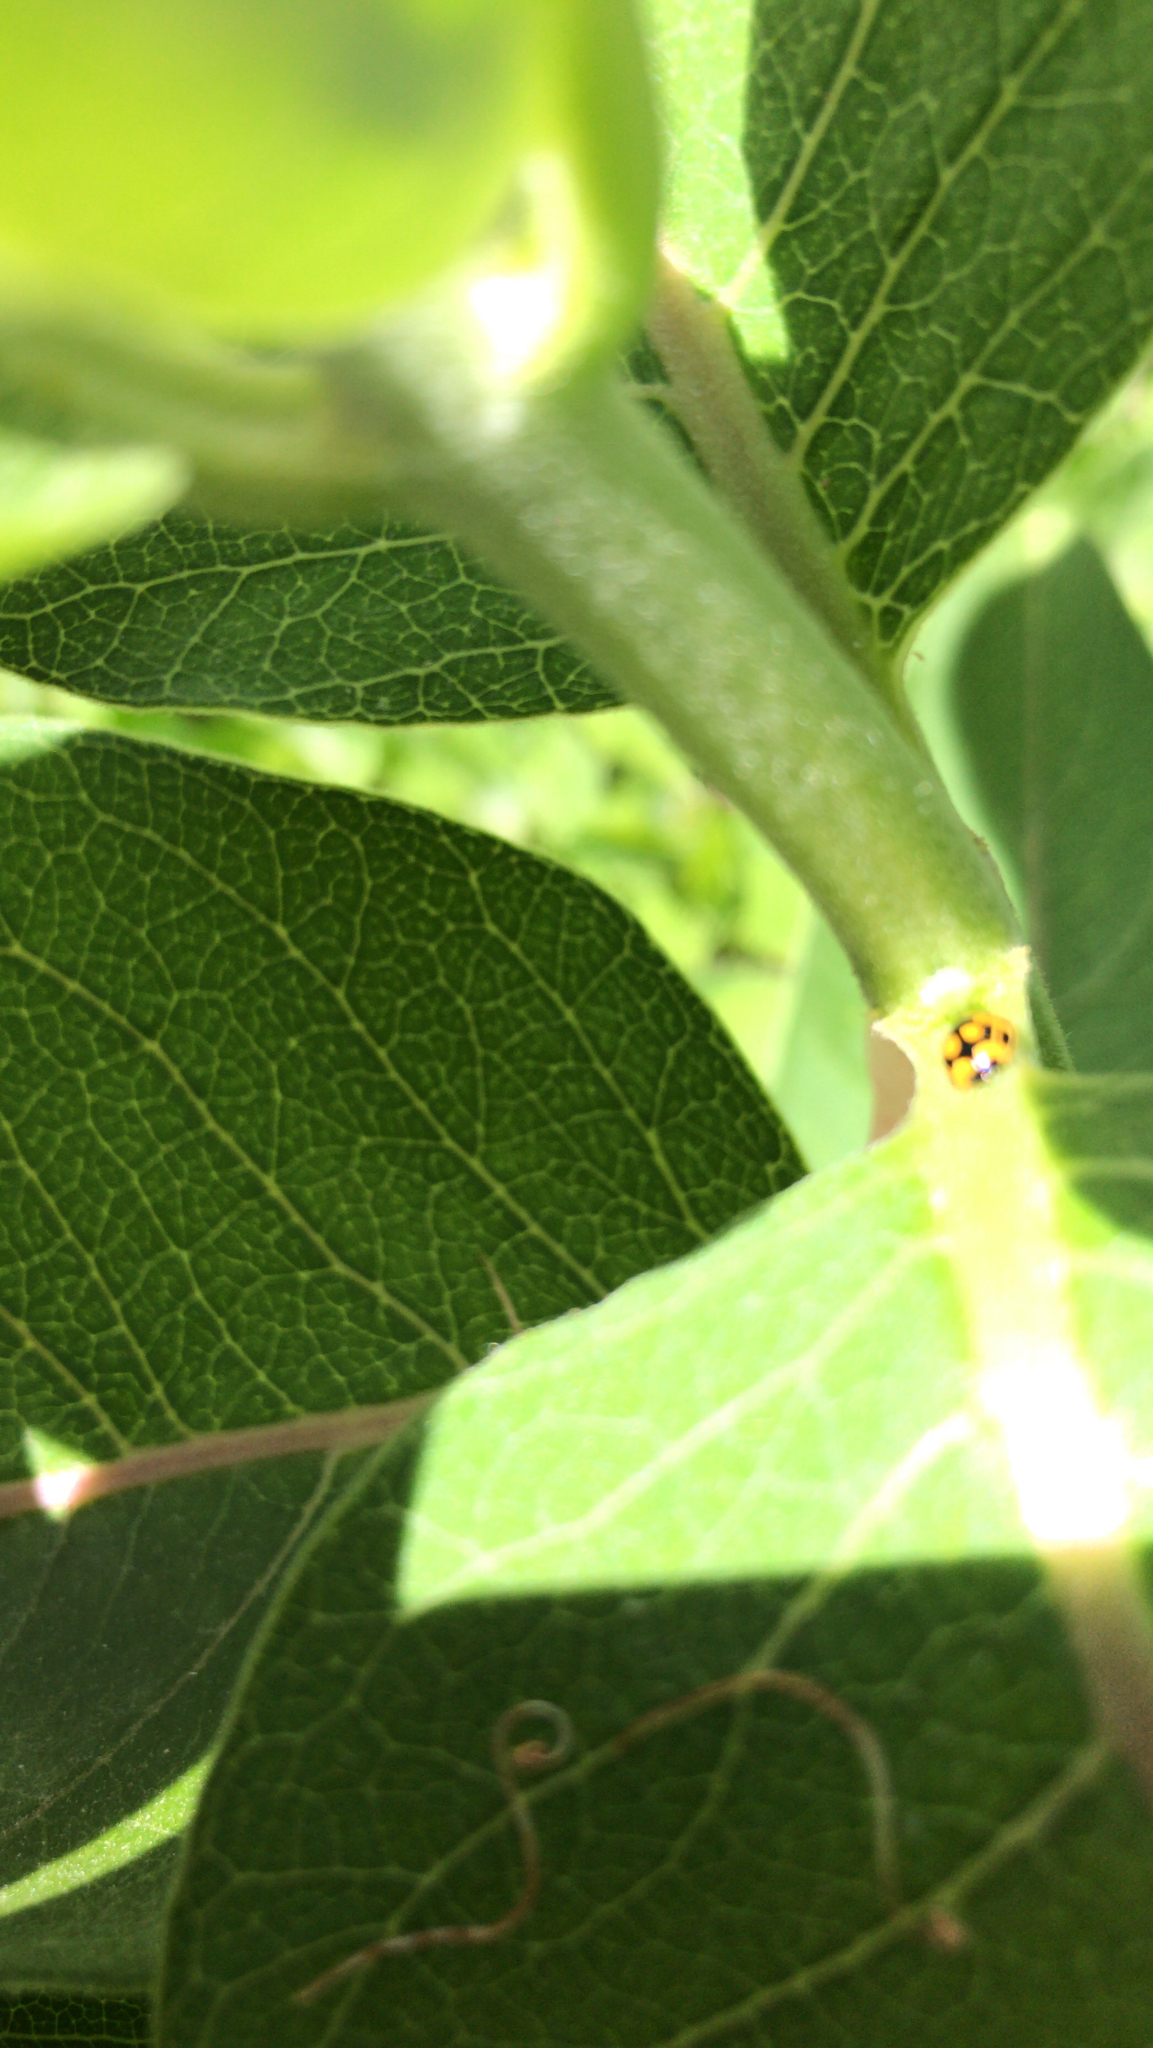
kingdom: Animalia
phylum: Arthropoda
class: Insecta
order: Coleoptera
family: Coccinellidae
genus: Propylaea
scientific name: Propylaea quatuordecimpunctata
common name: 14-spotted ladybird beetle
